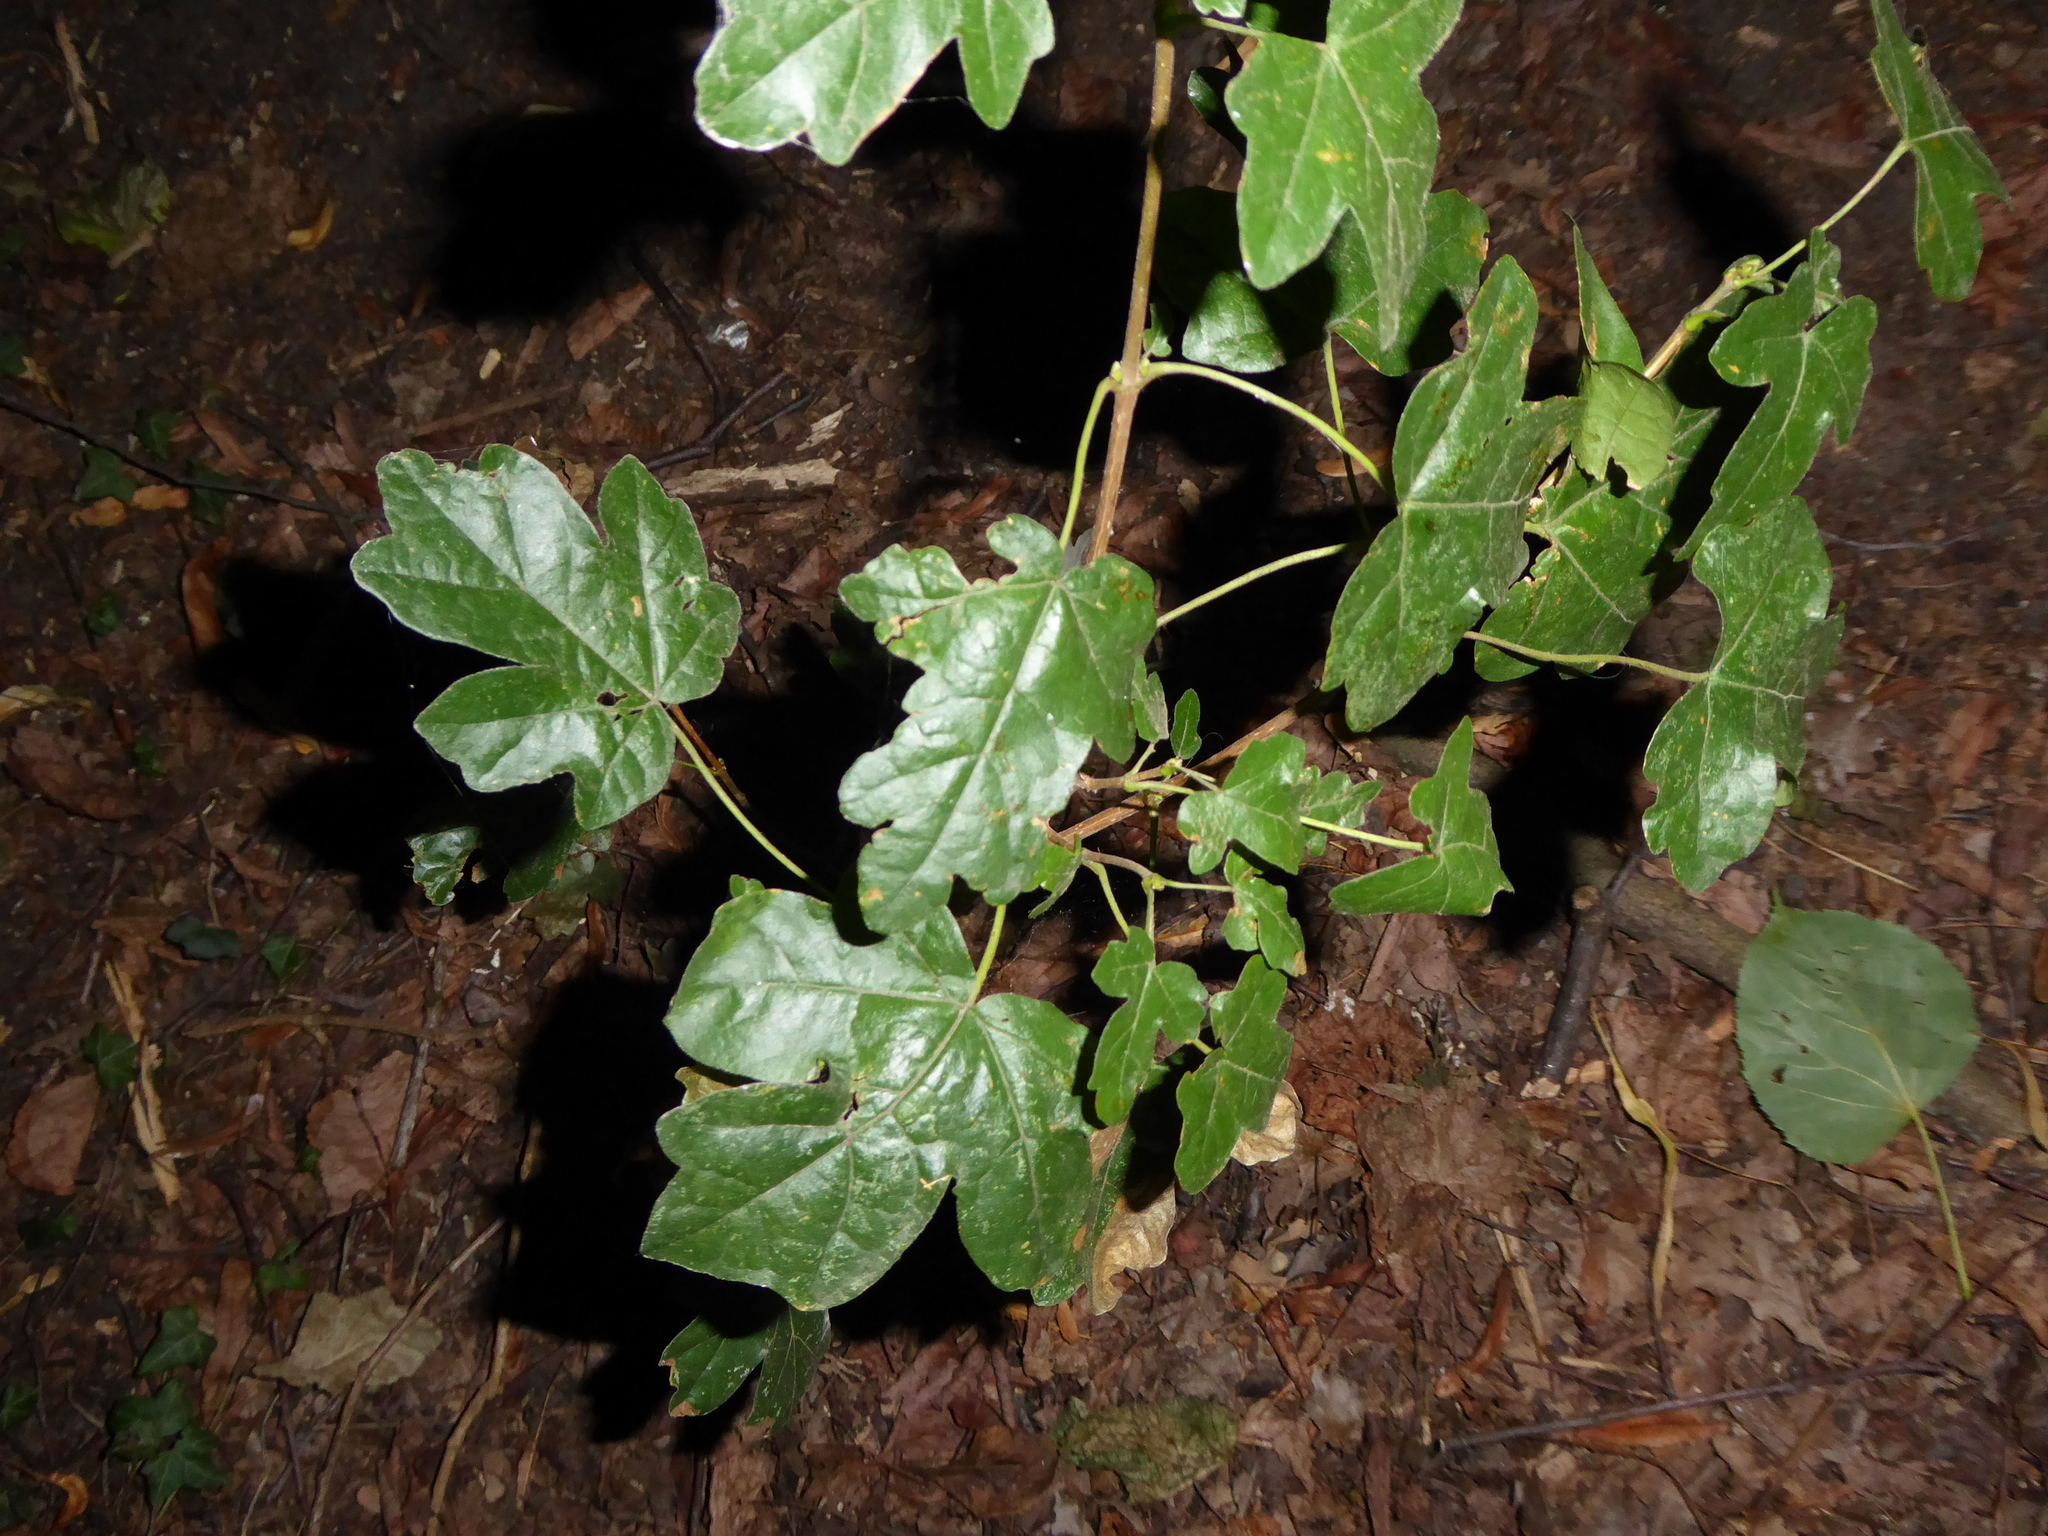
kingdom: Plantae
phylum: Tracheophyta
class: Magnoliopsida
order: Sapindales
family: Sapindaceae
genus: Acer
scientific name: Acer campestre
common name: Field maple
